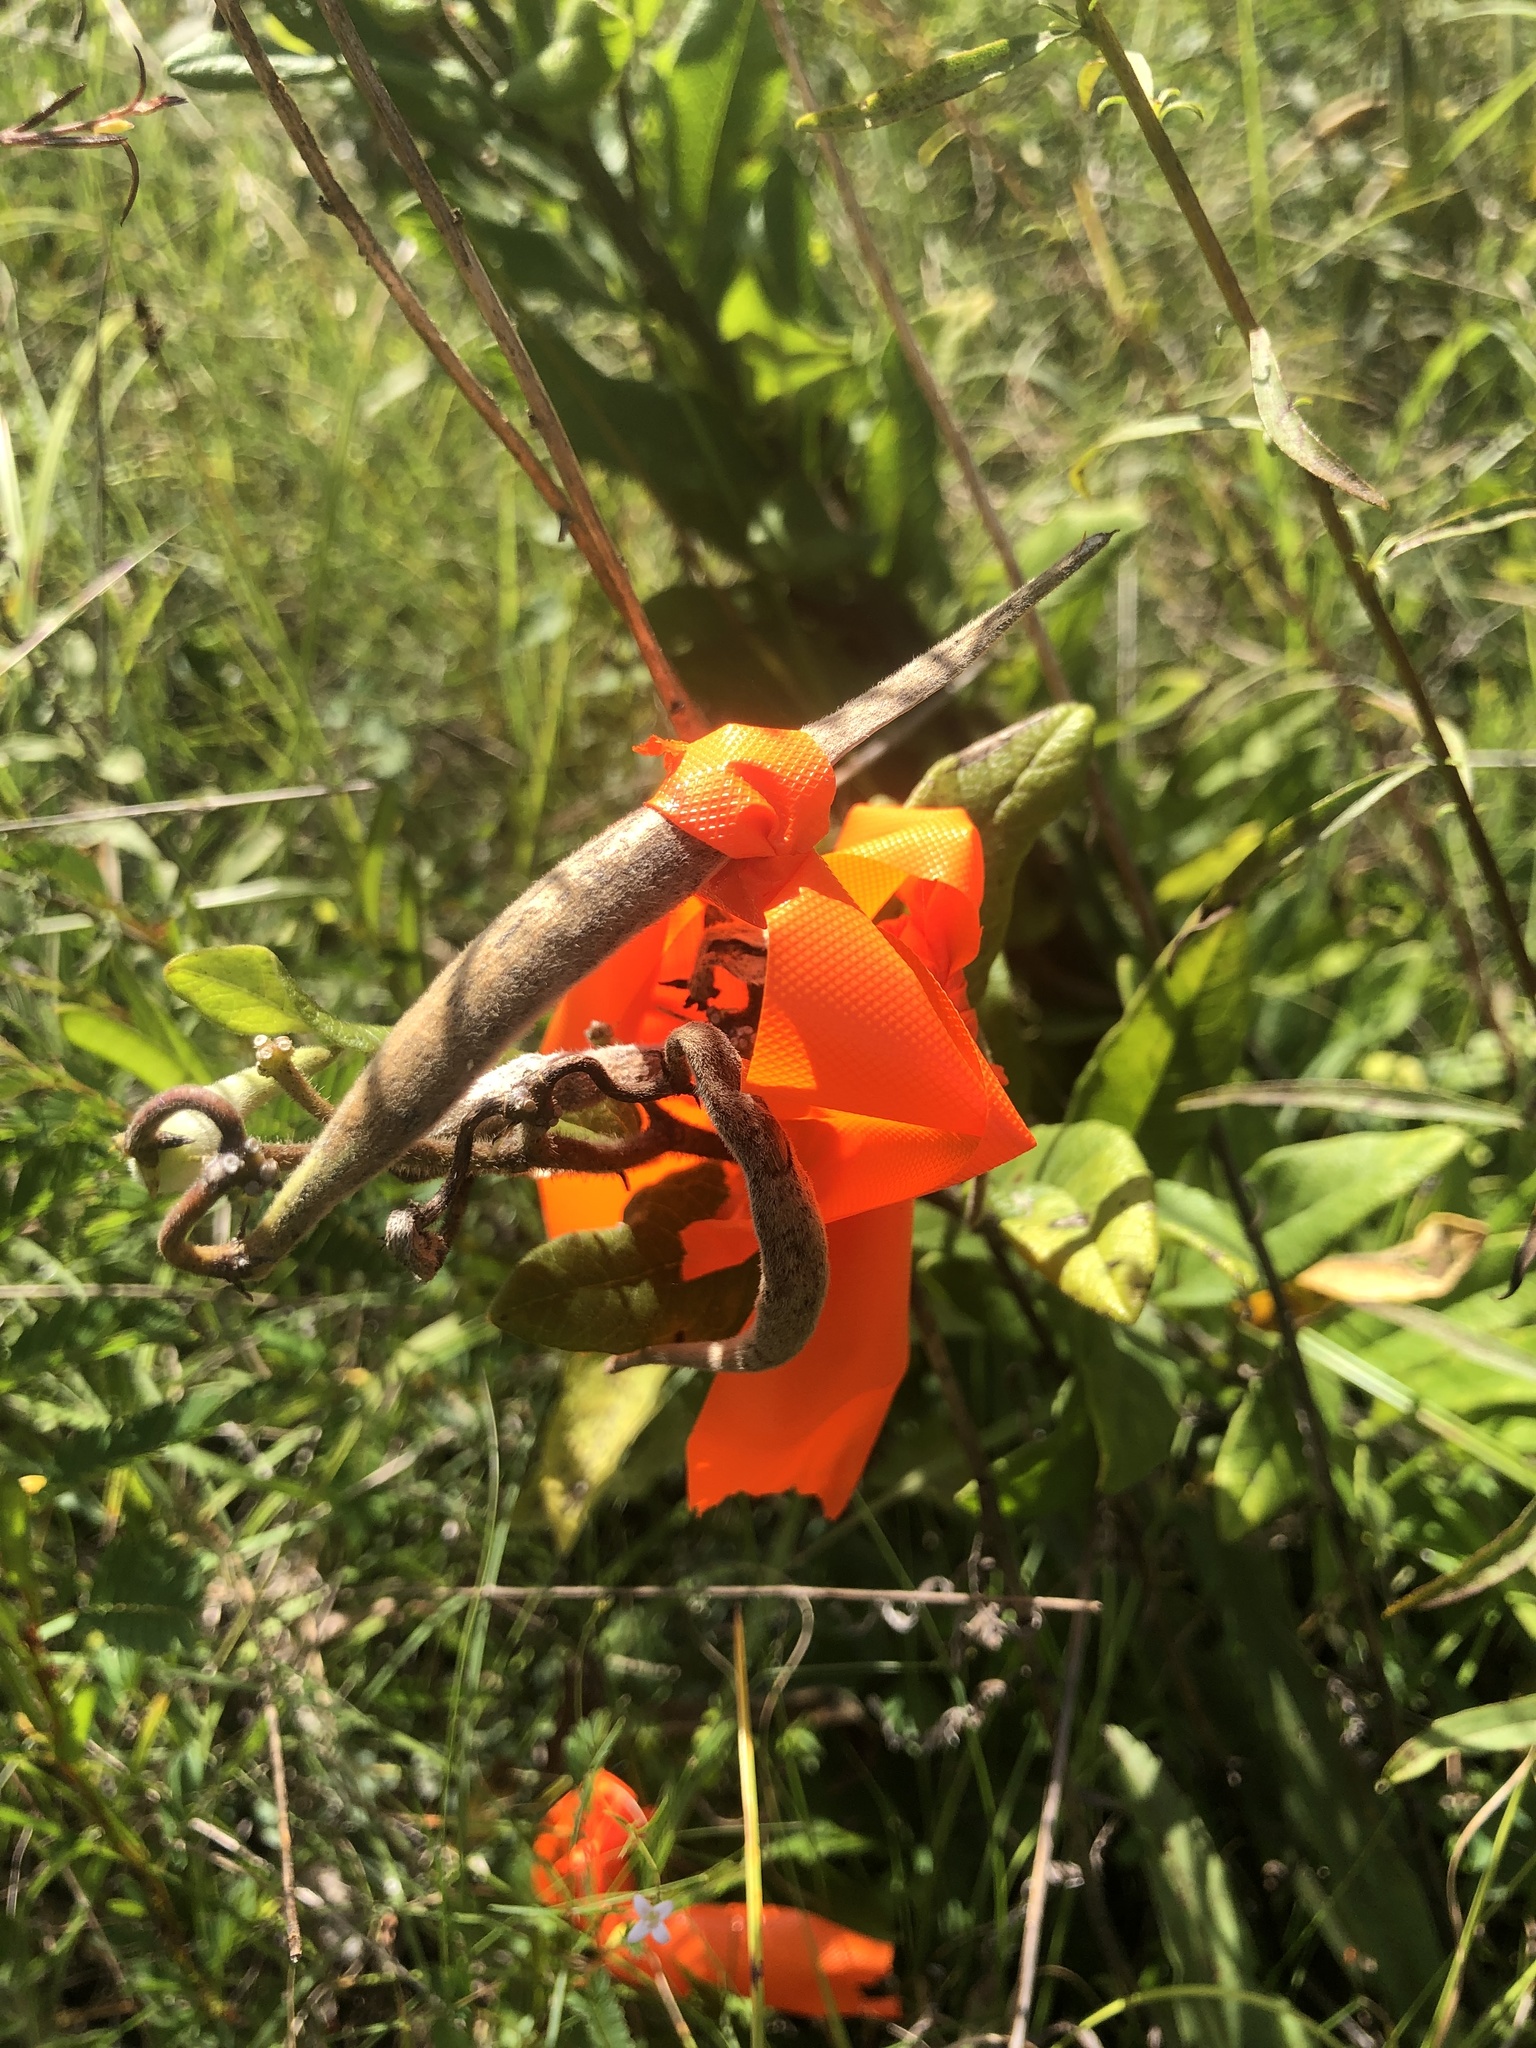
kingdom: Plantae
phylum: Tracheophyta
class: Magnoliopsida
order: Gentianales
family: Apocynaceae
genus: Asclepias
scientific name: Asclepias tuberosa
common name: Butterfly milkweed
